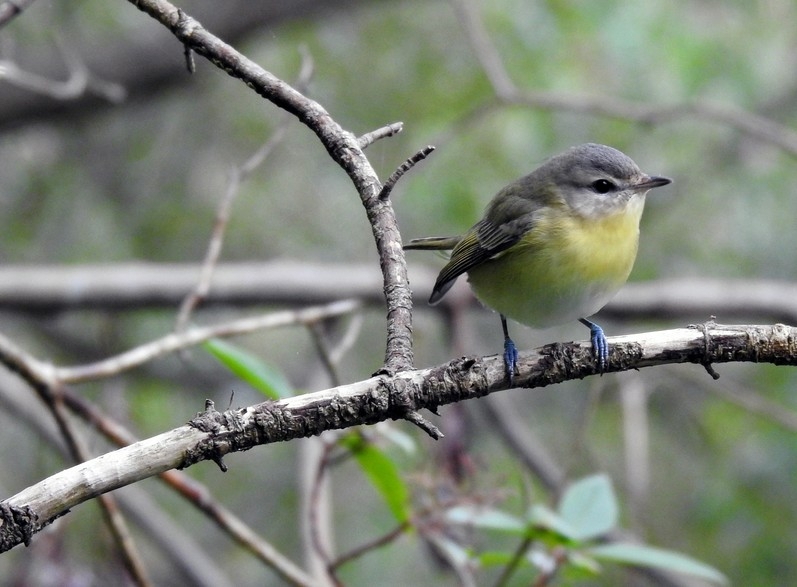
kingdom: Animalia
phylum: Chordata
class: Aves
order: Passeriformes
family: Vireonidae
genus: Vireo
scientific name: Vireo philadelphicus
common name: Philadelphia vireo
